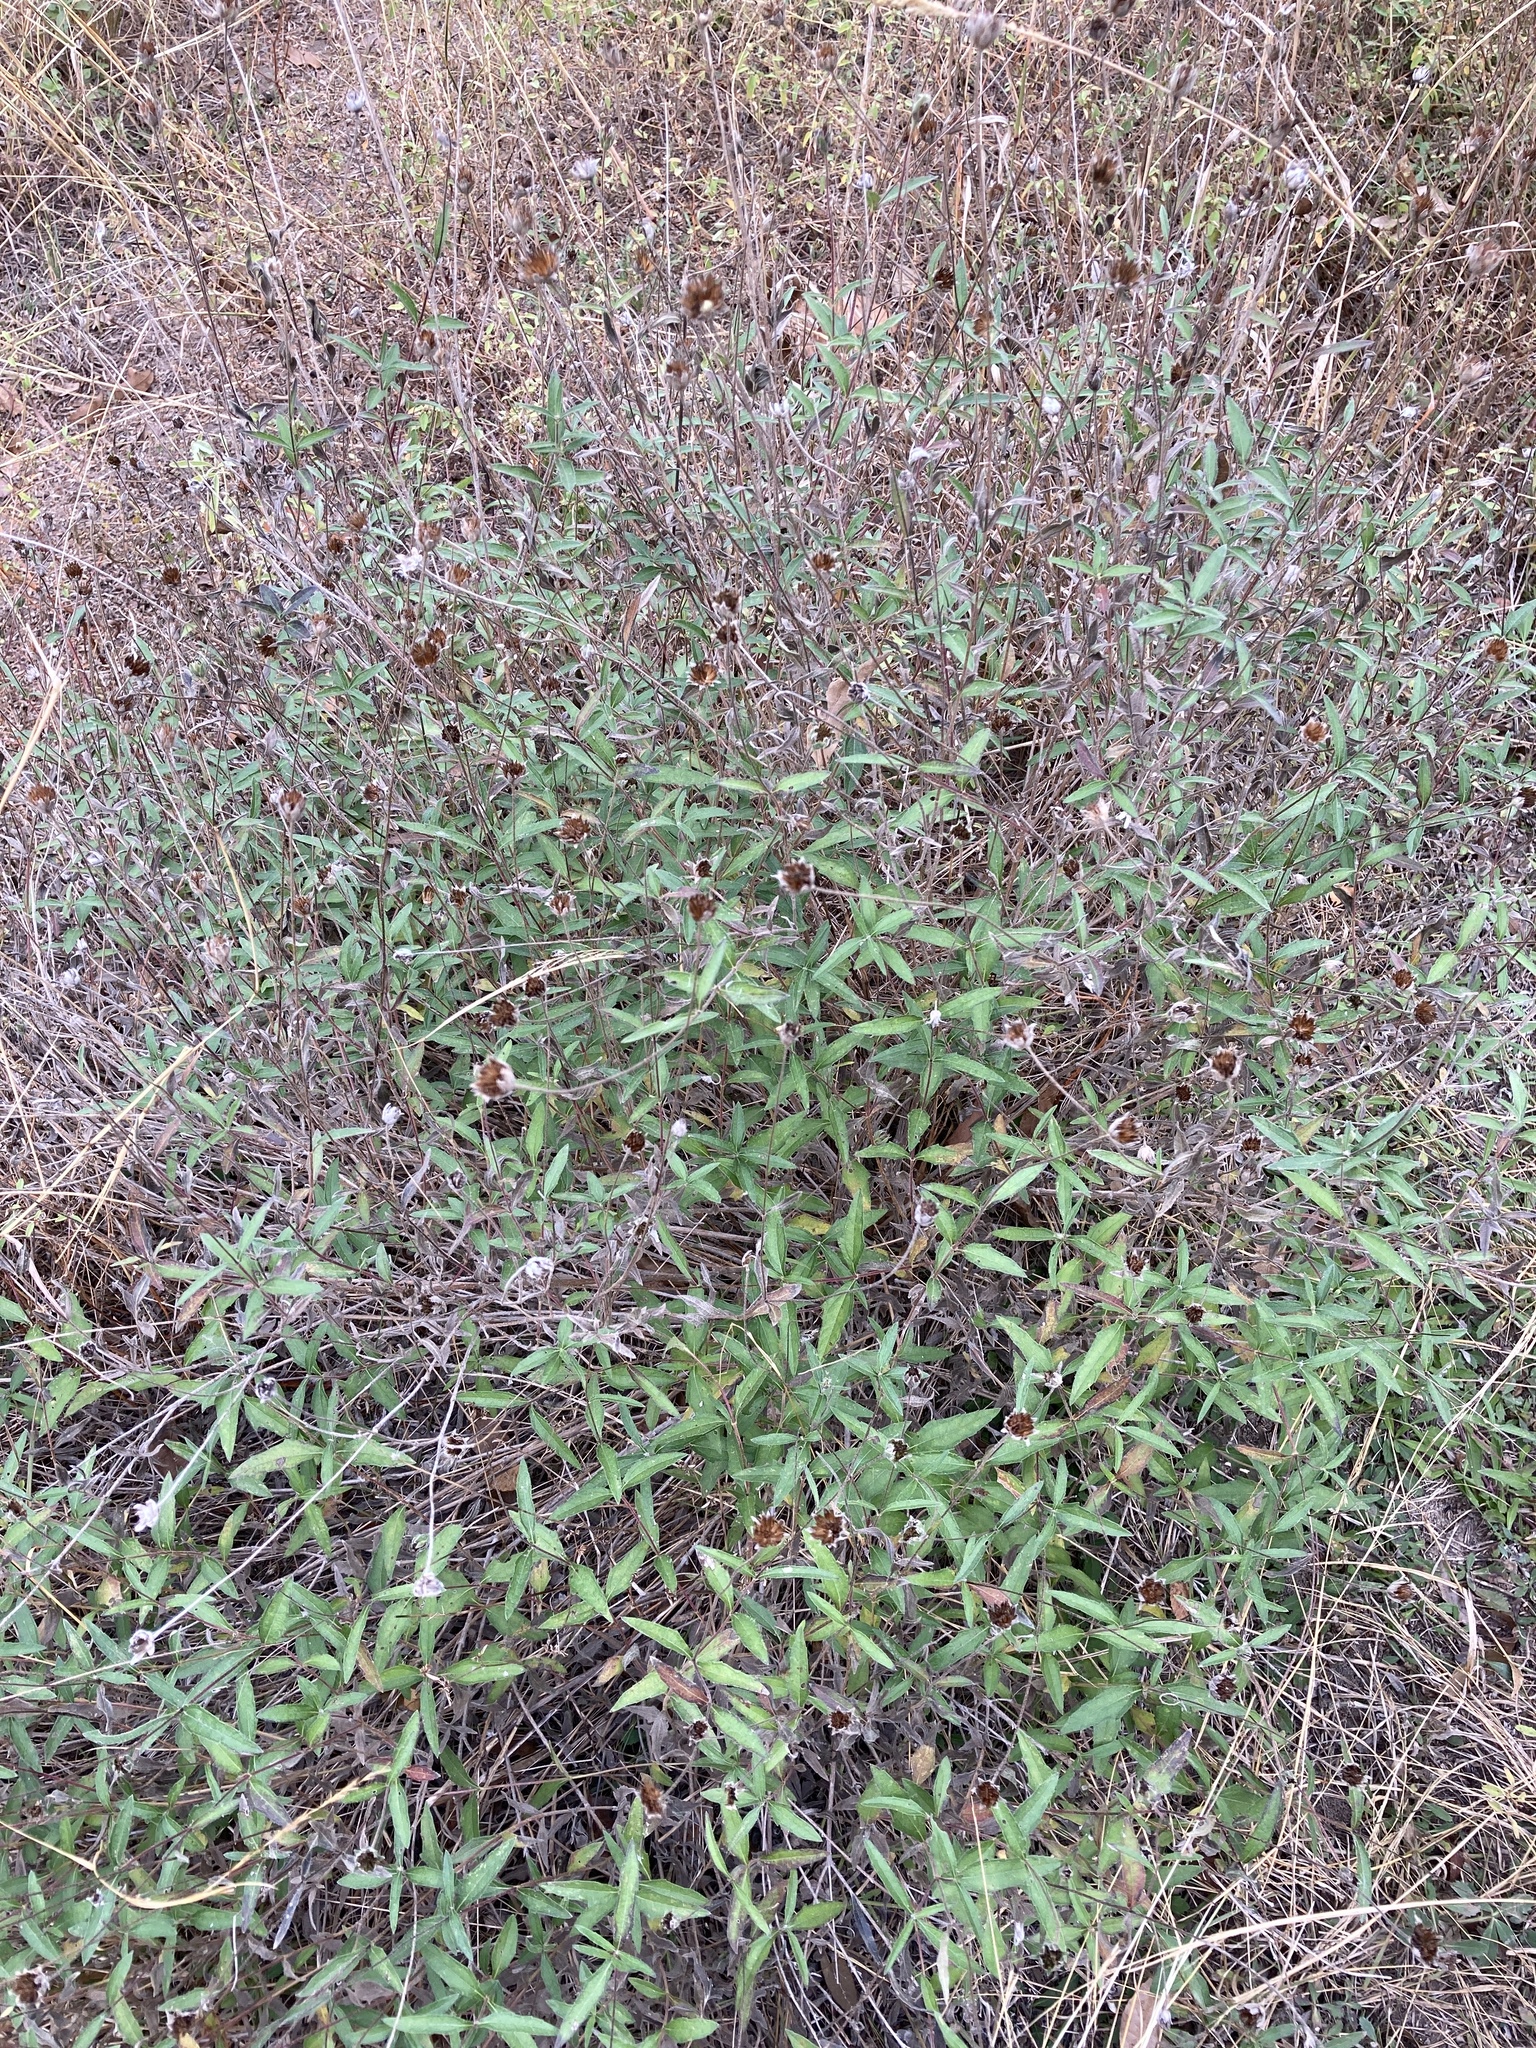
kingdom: Plantae
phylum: Tracheophyta
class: Magnoliopsida
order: Asterales
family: Asteraceae
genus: Wedelia
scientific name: Wedelia acapulcensis
